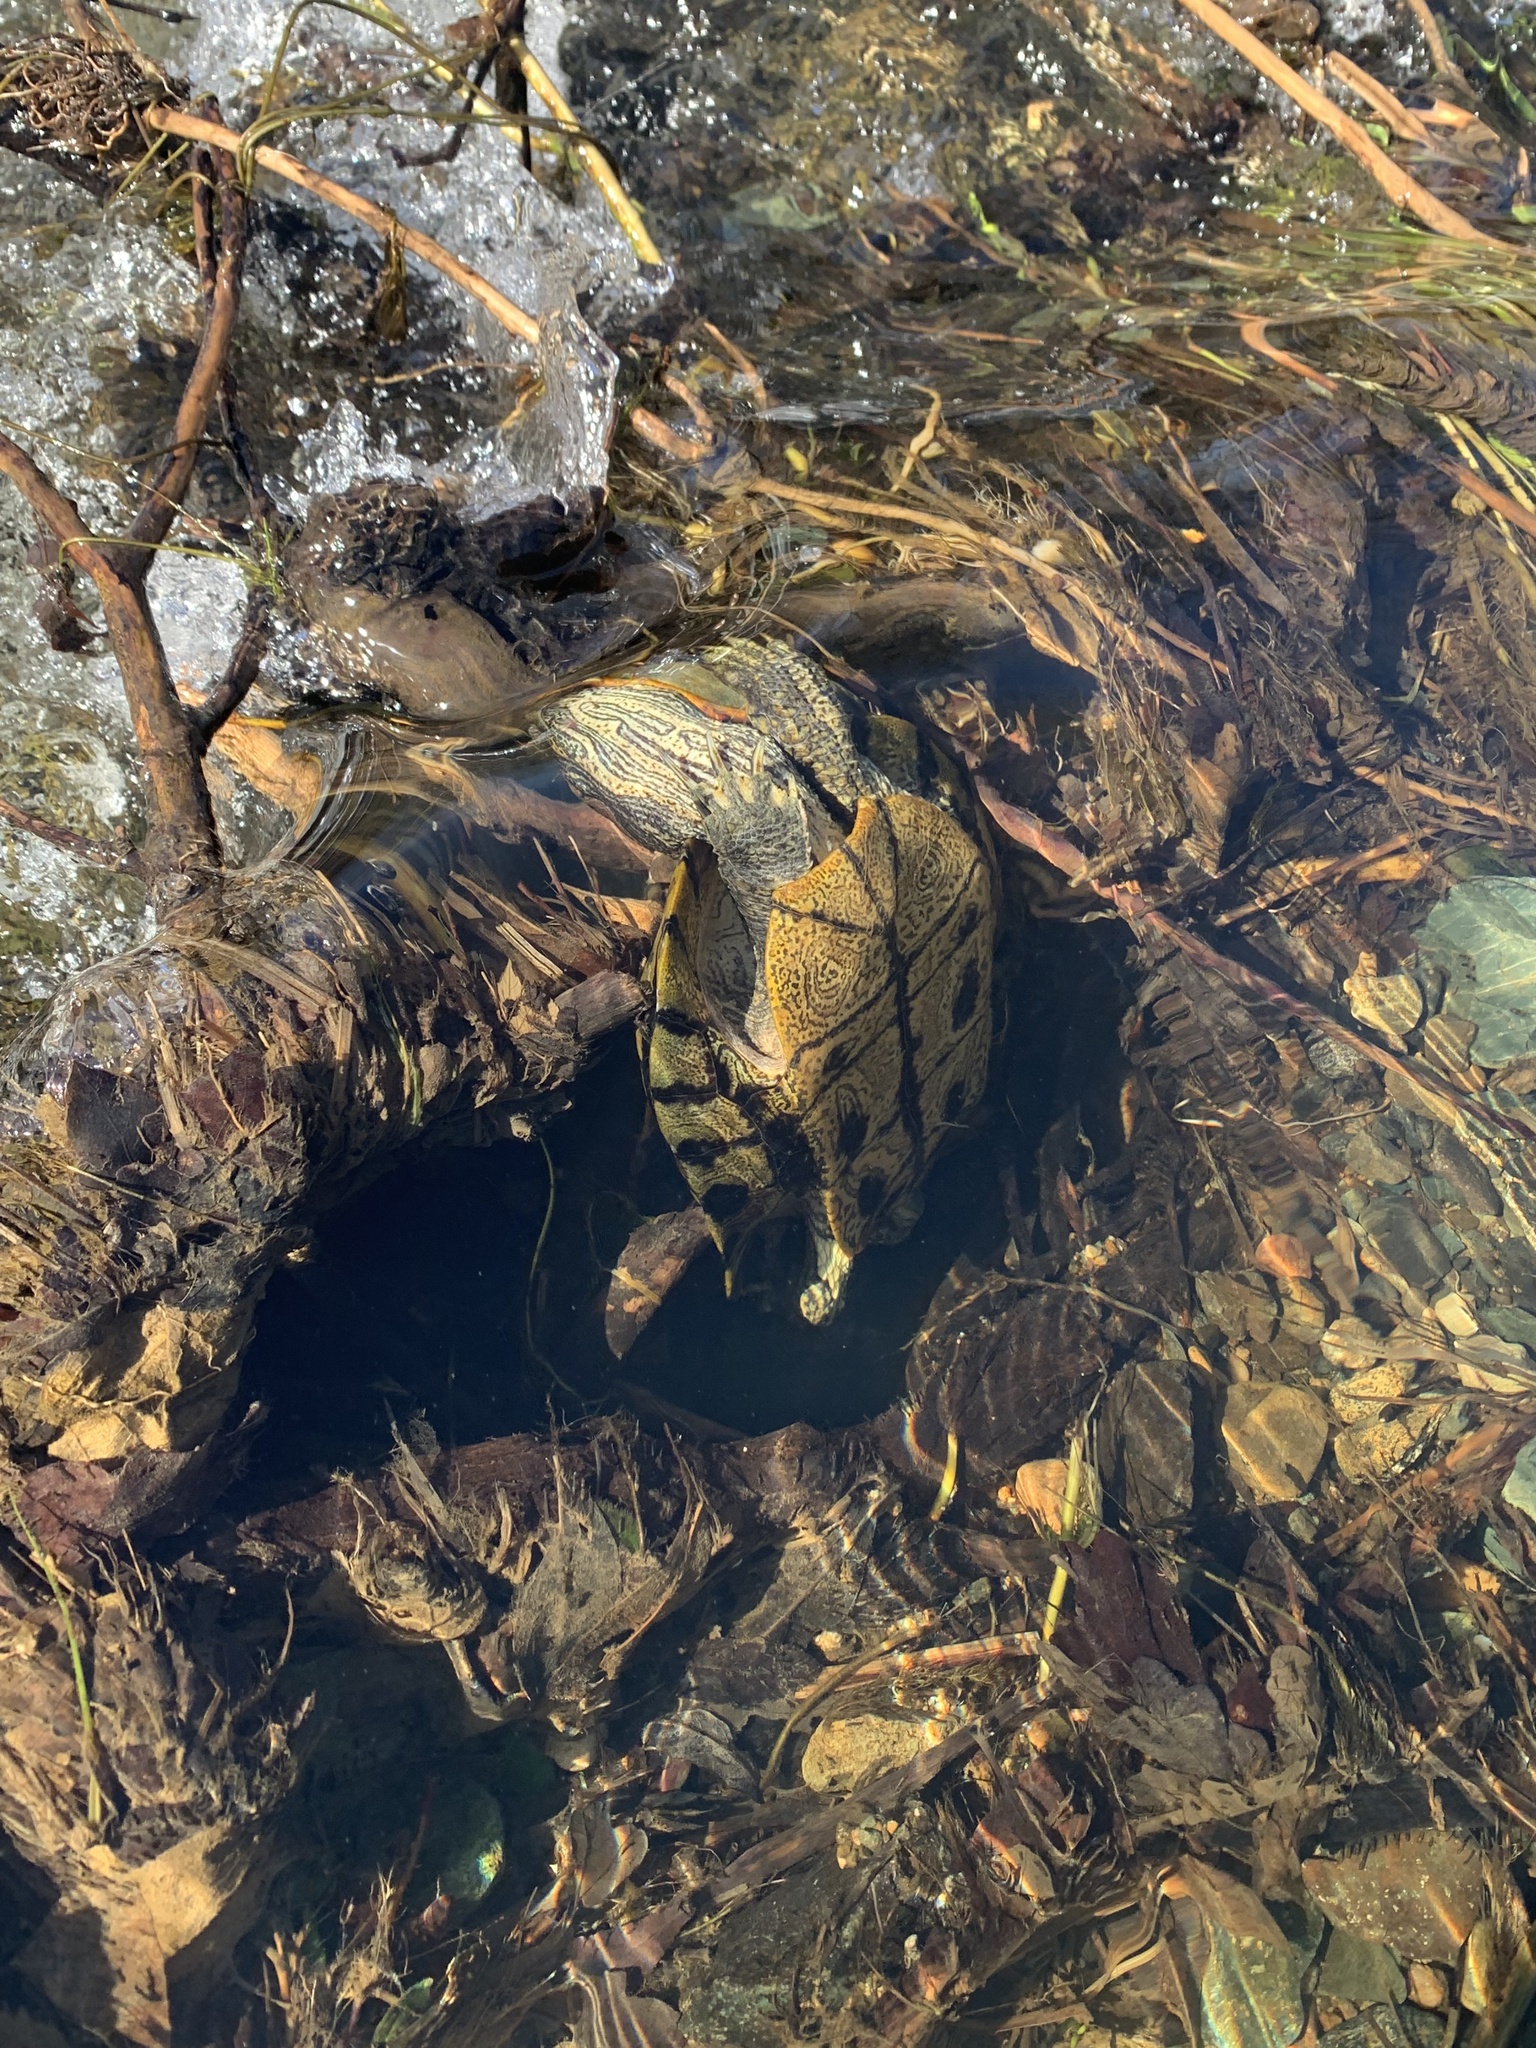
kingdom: Animalia
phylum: Chordata
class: Testudines
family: Emydidae
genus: Trachemys
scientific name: Trachemys scripta
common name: Slider
